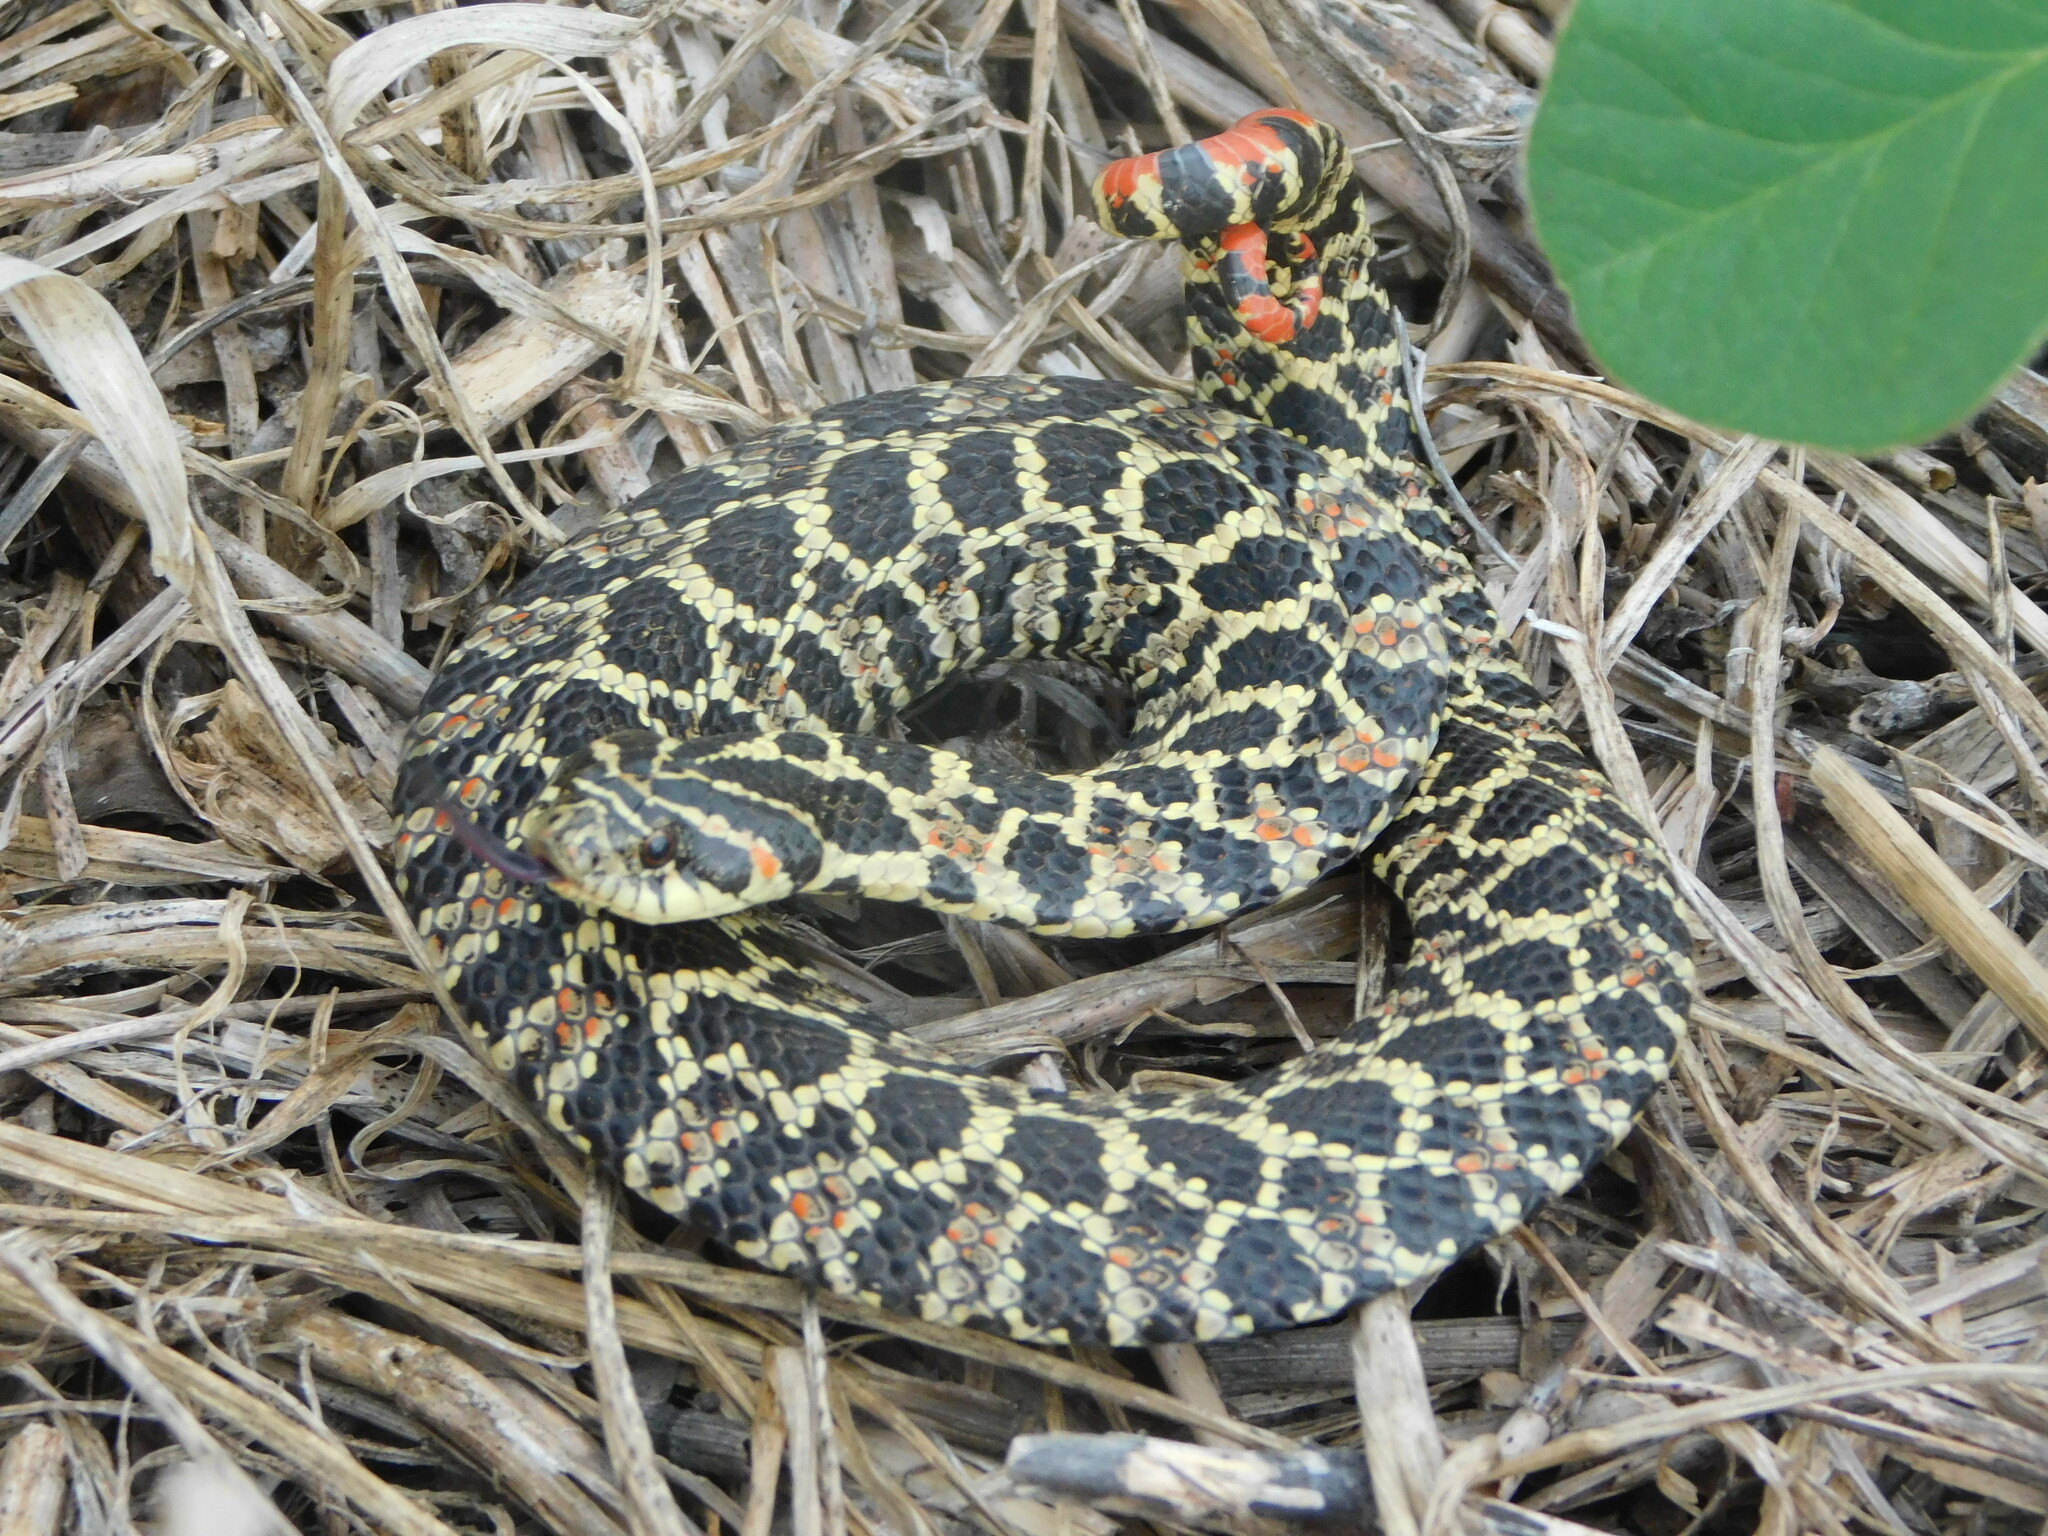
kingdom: Animalia
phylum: Chordata
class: Squamata
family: Colubridae
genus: Xenodon
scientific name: Xenodon dorbignyi
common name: South american hognose snake
